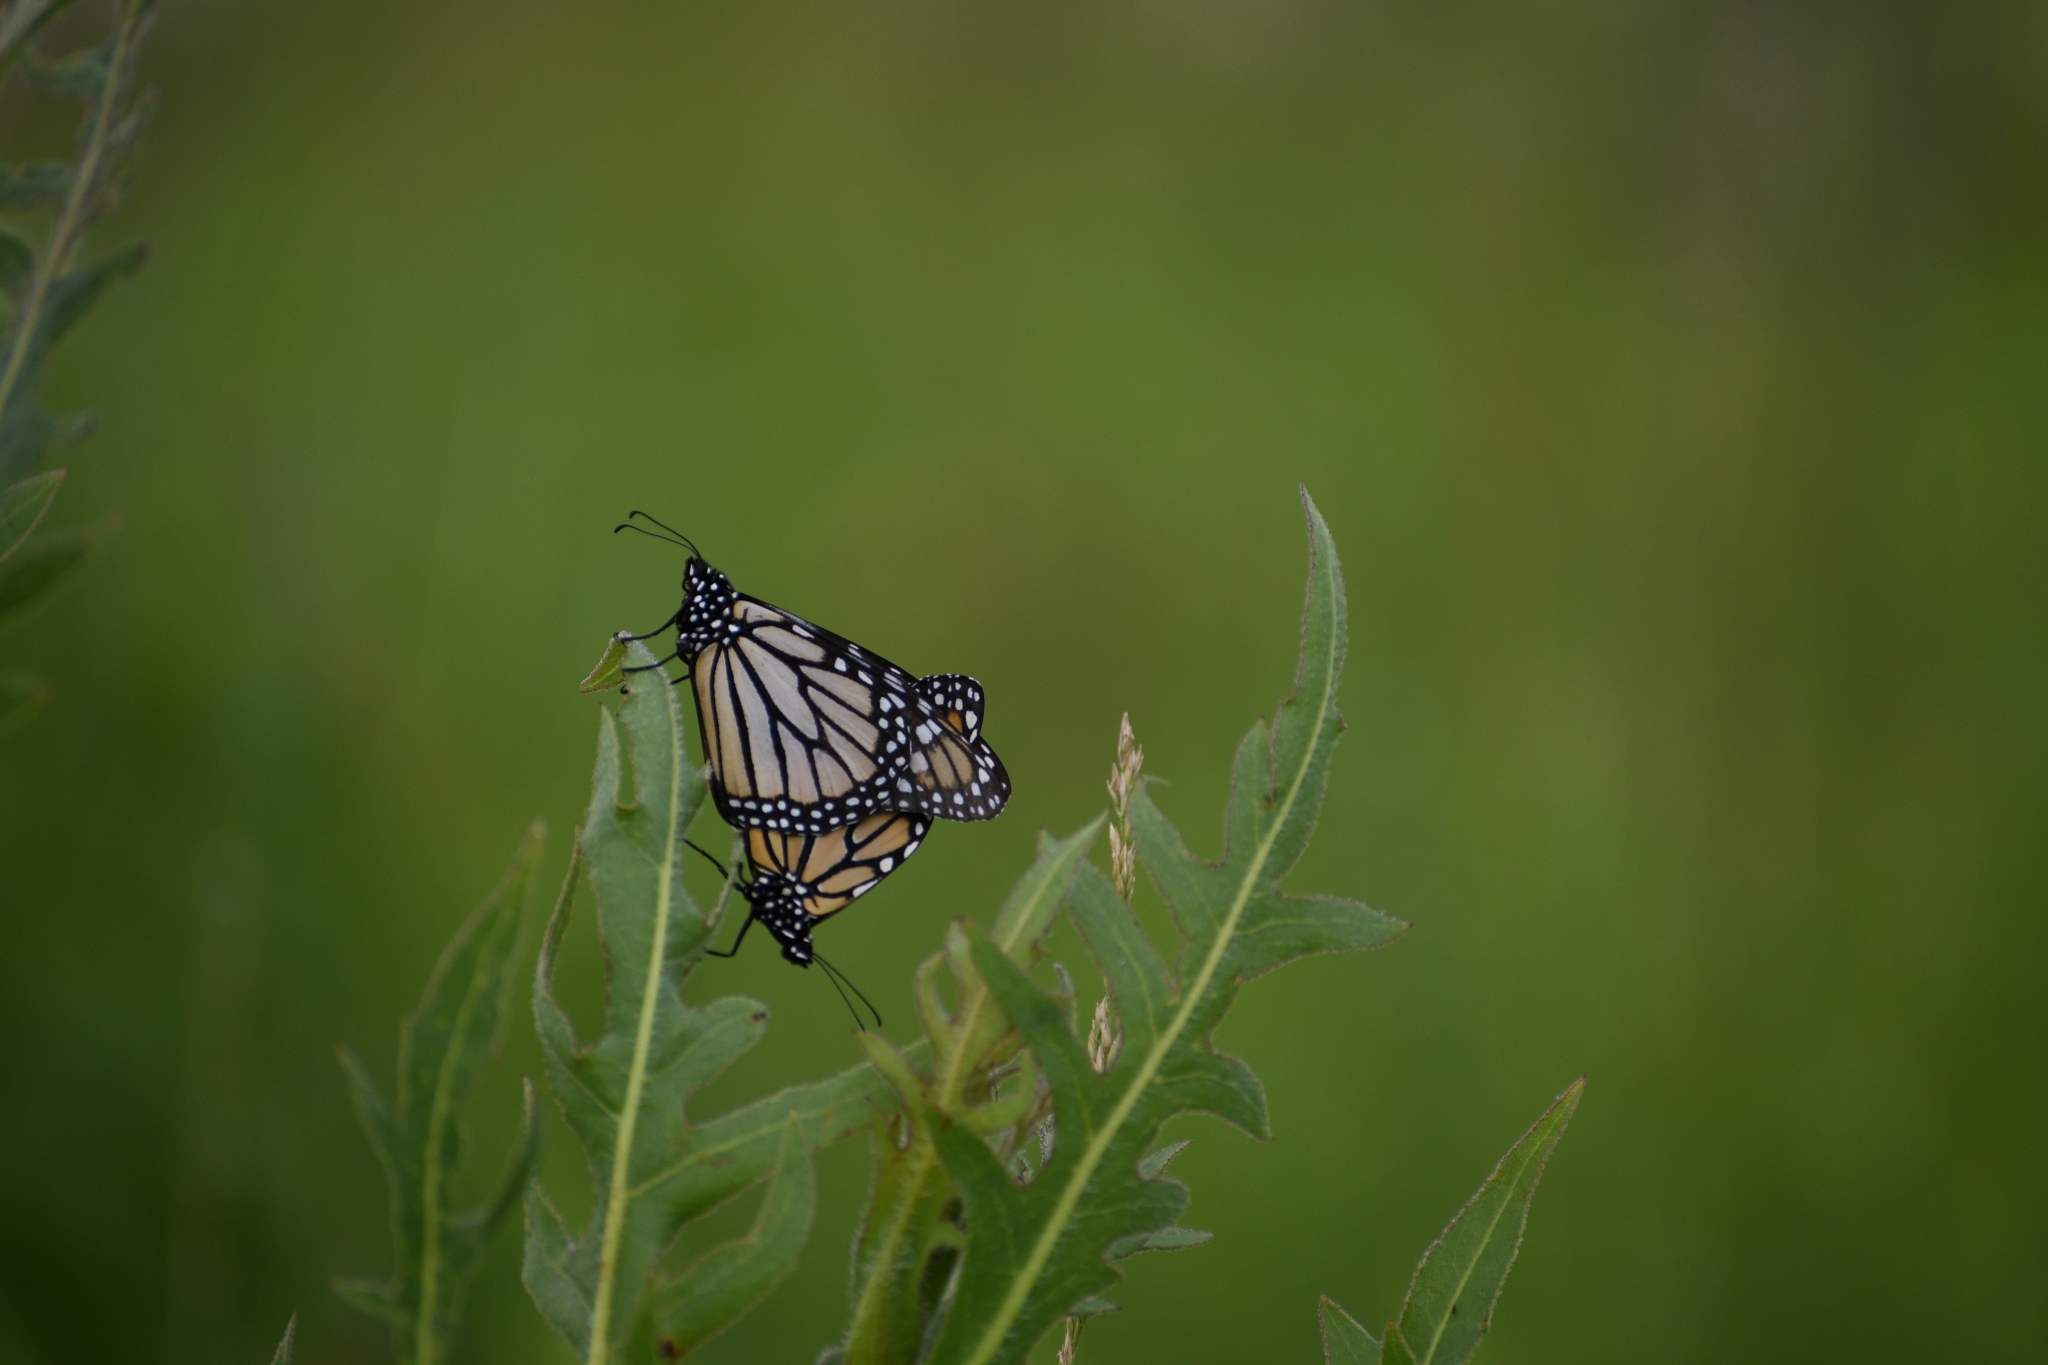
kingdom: Animalia
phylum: Arthropoda
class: Insecta
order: Lepidoptera
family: Nymphalidae
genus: Danaus
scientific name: Danaus plexippus
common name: Monarch
